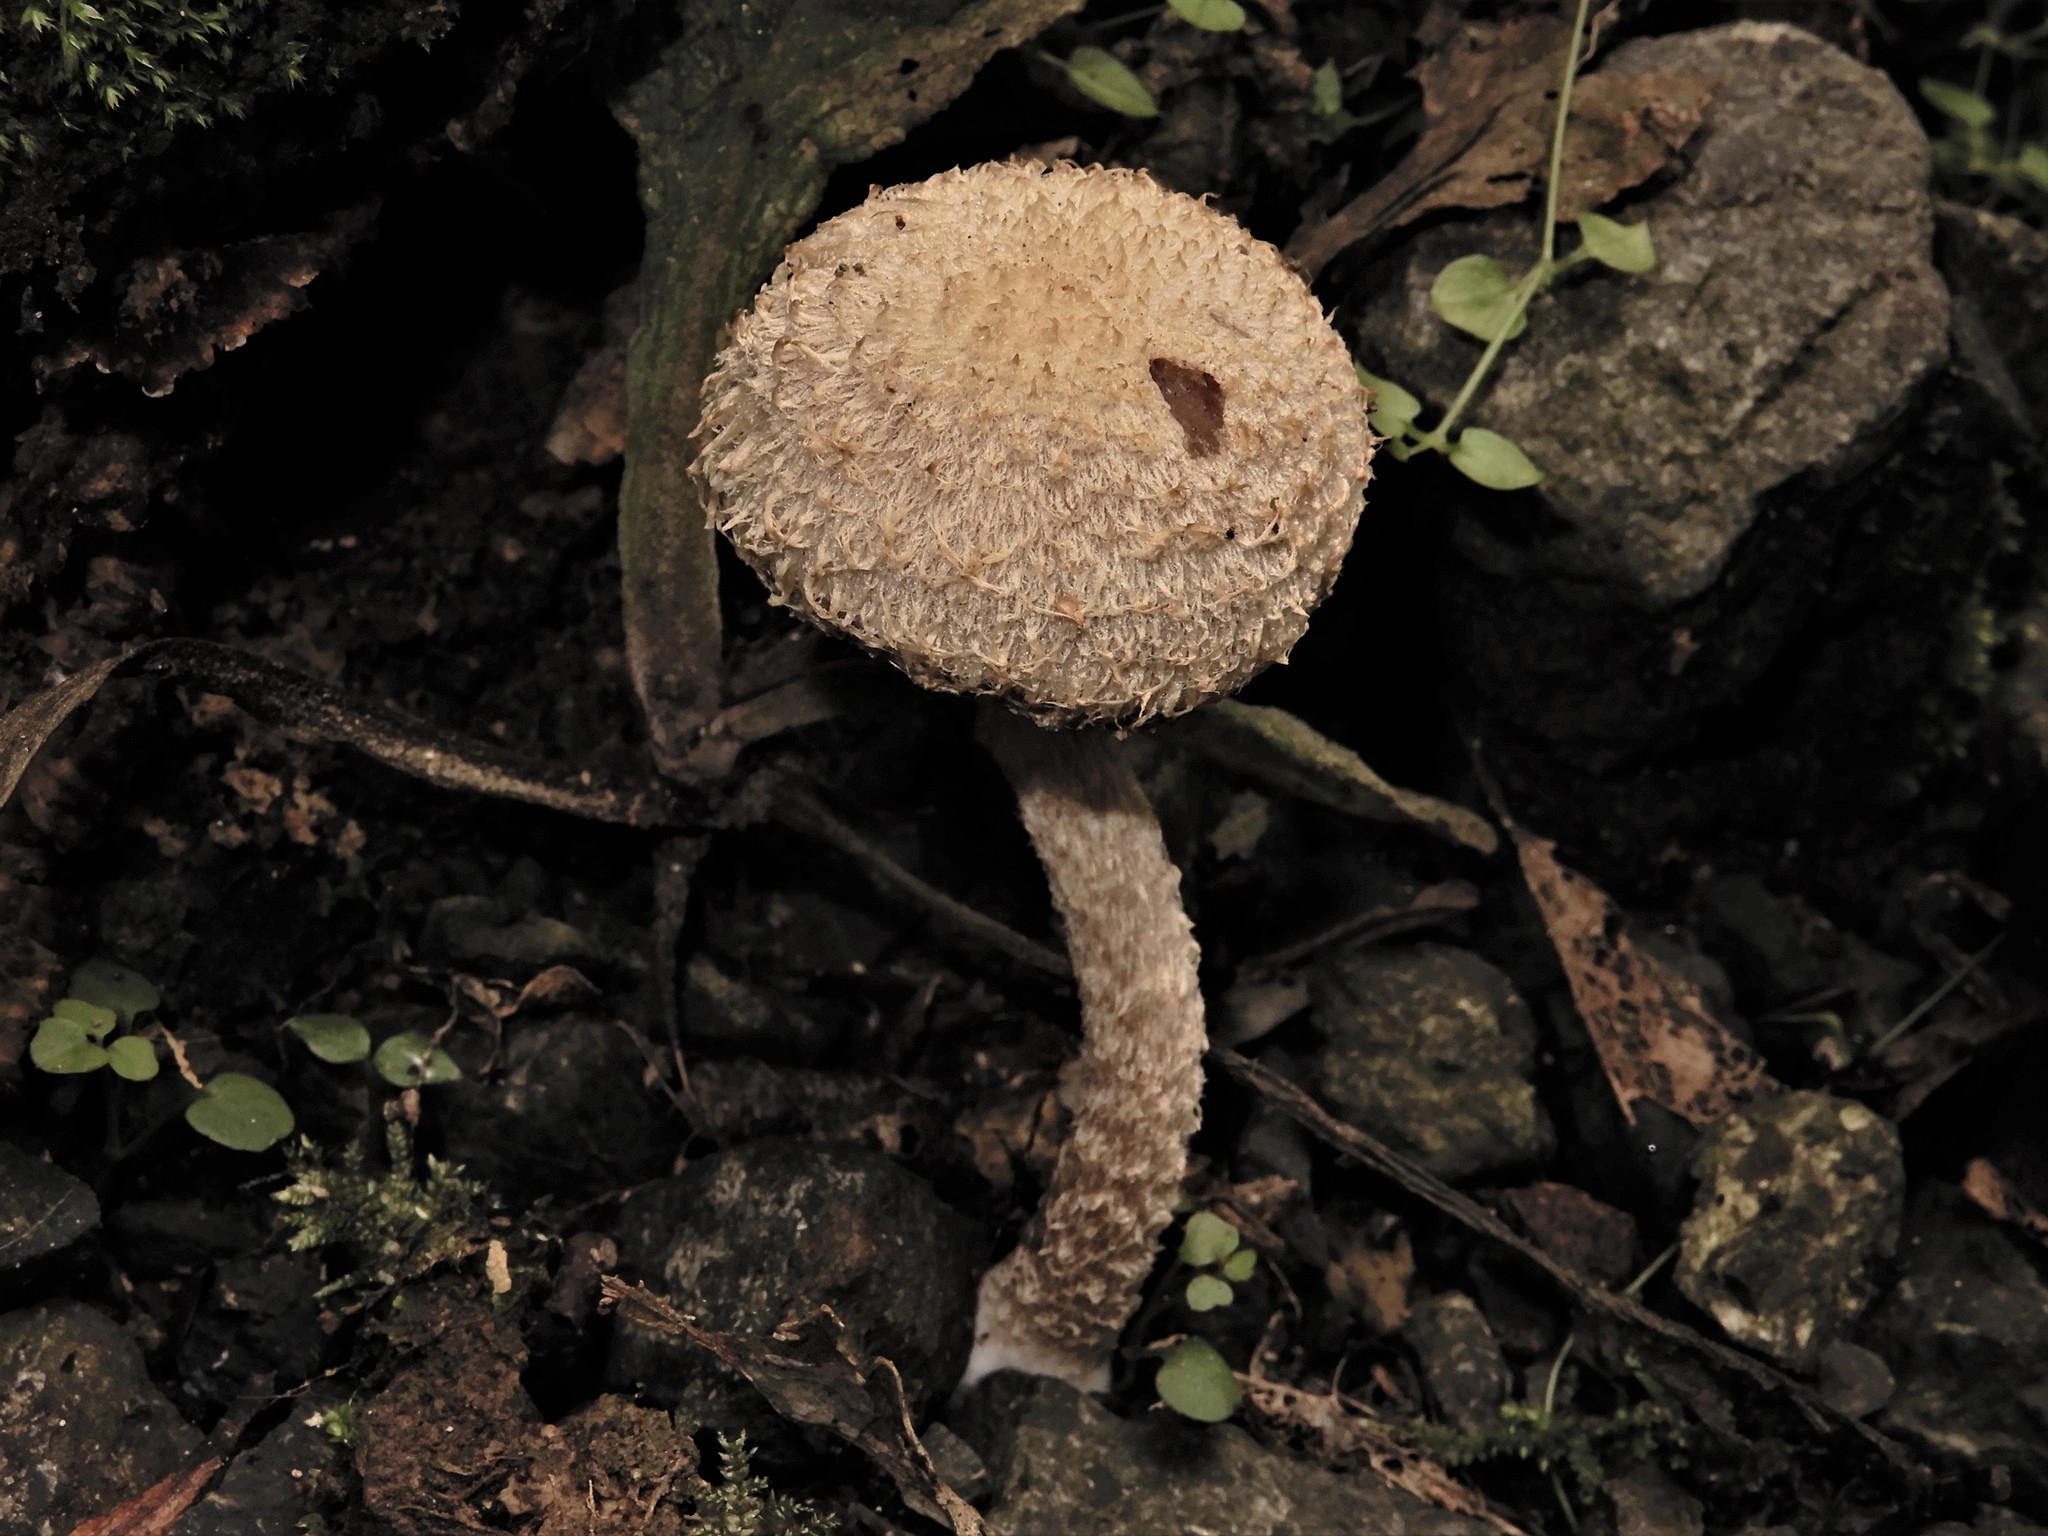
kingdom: Fungi
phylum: Basidiomycota
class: Agaricomycetes
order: Agaricales
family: Psathyrellaceae
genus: Psathyrella
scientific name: Psathyrella asperospora
